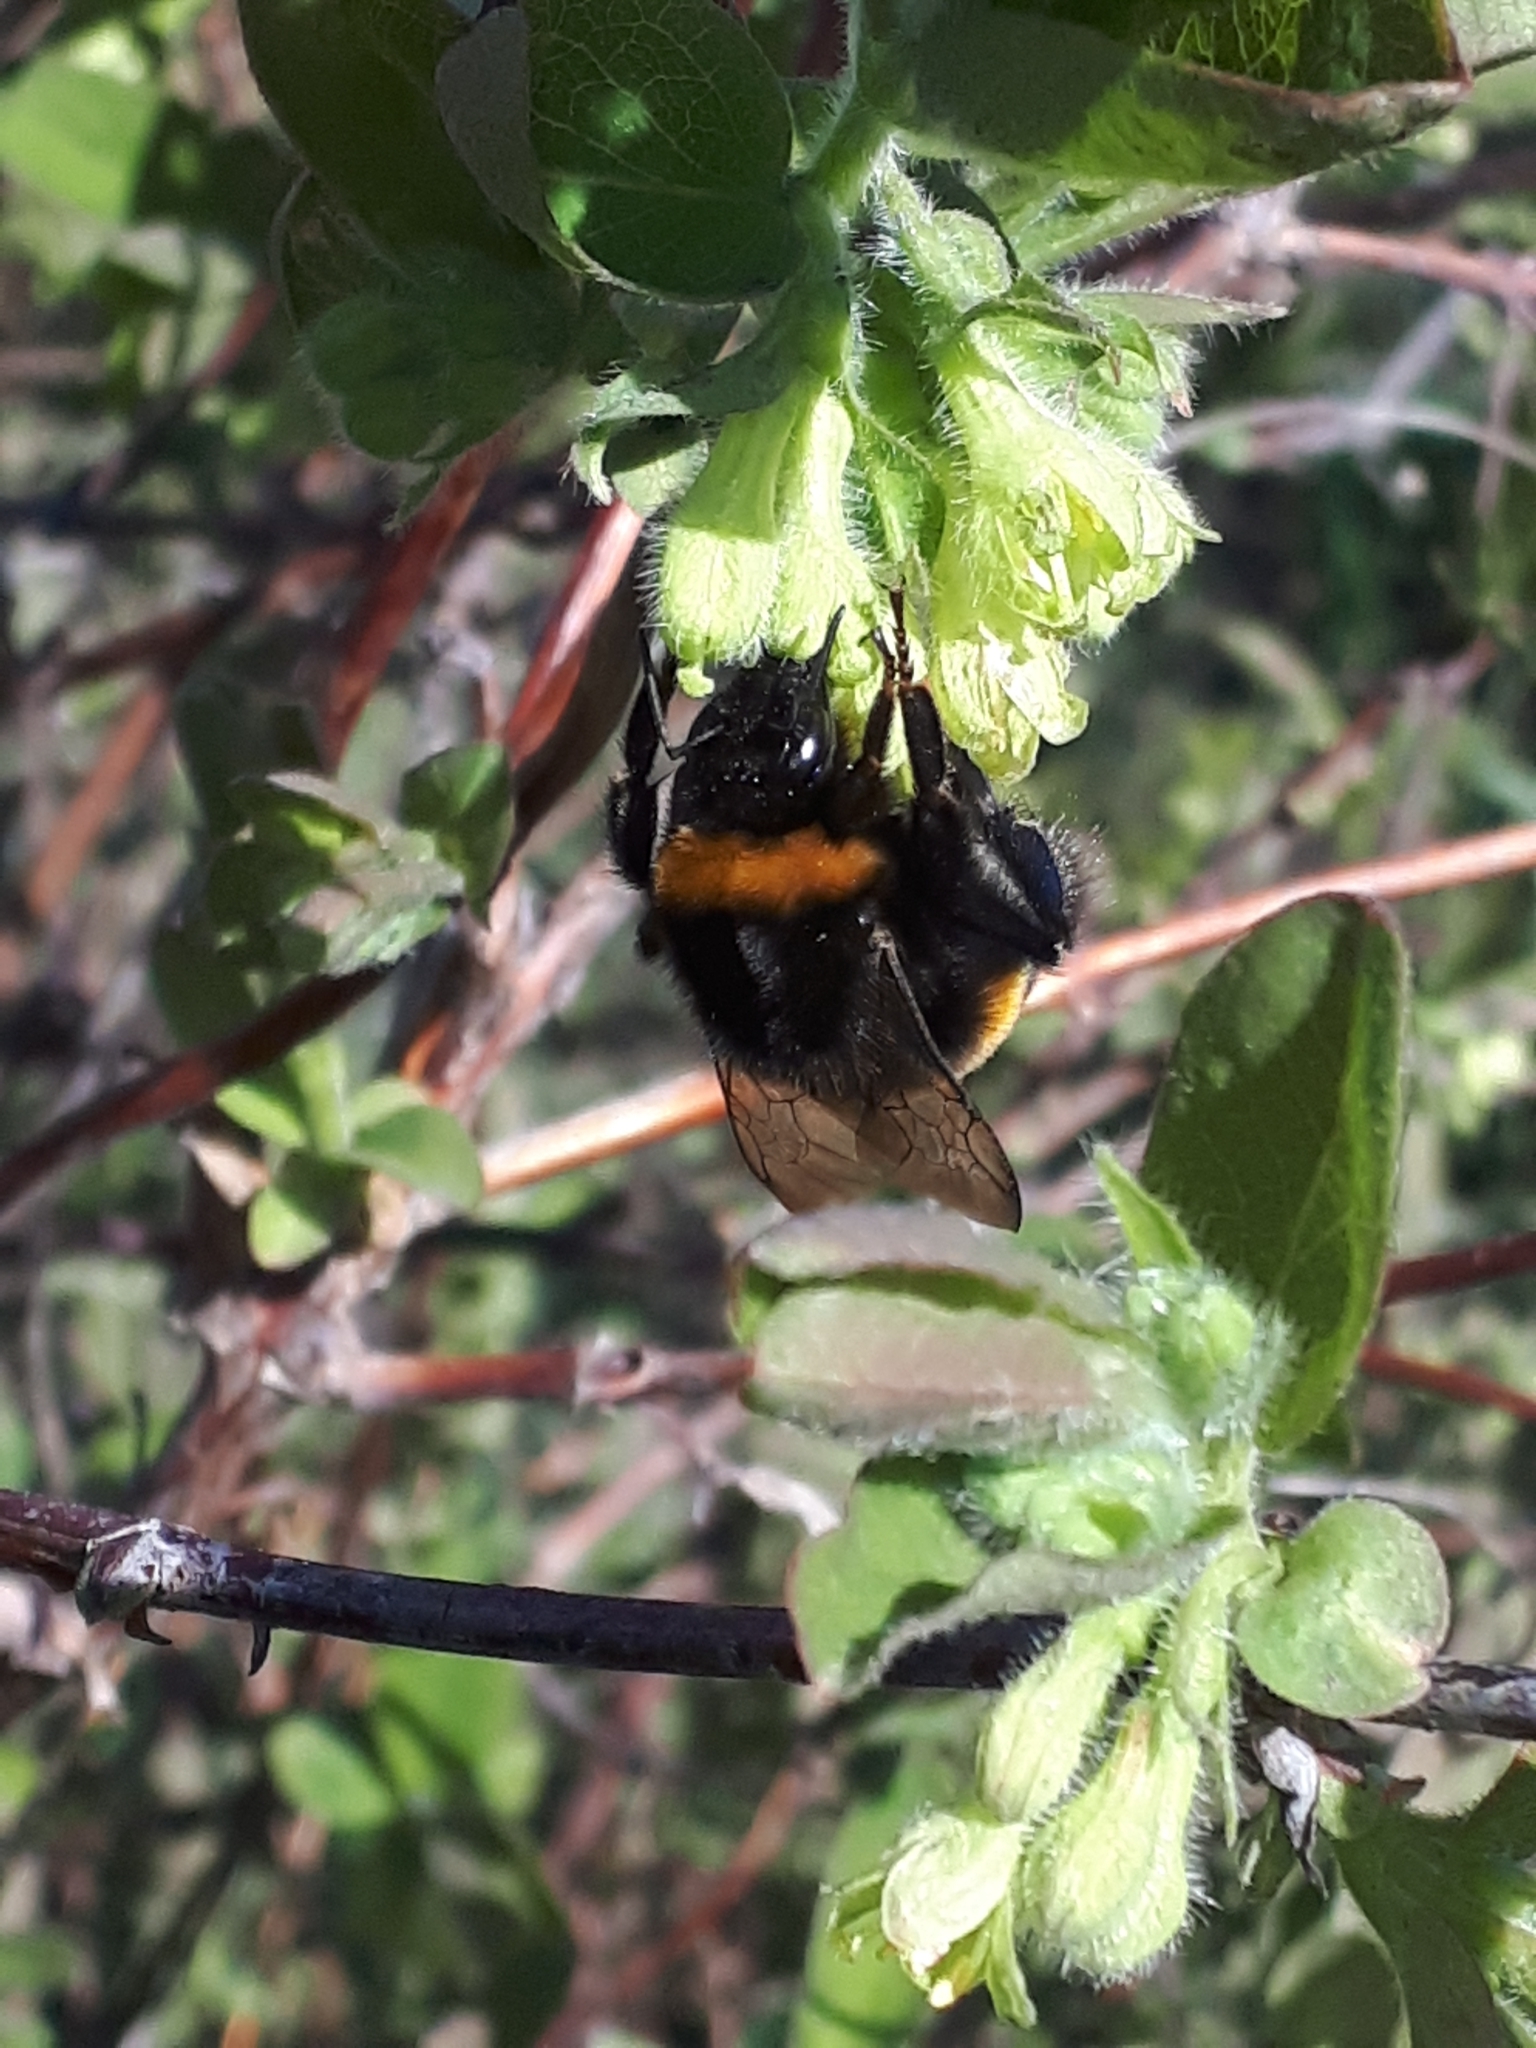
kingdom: Animalia
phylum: Arthropoda
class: Insecta
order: Hymenoptera
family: Apidae
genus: Bombus
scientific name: Bombus
